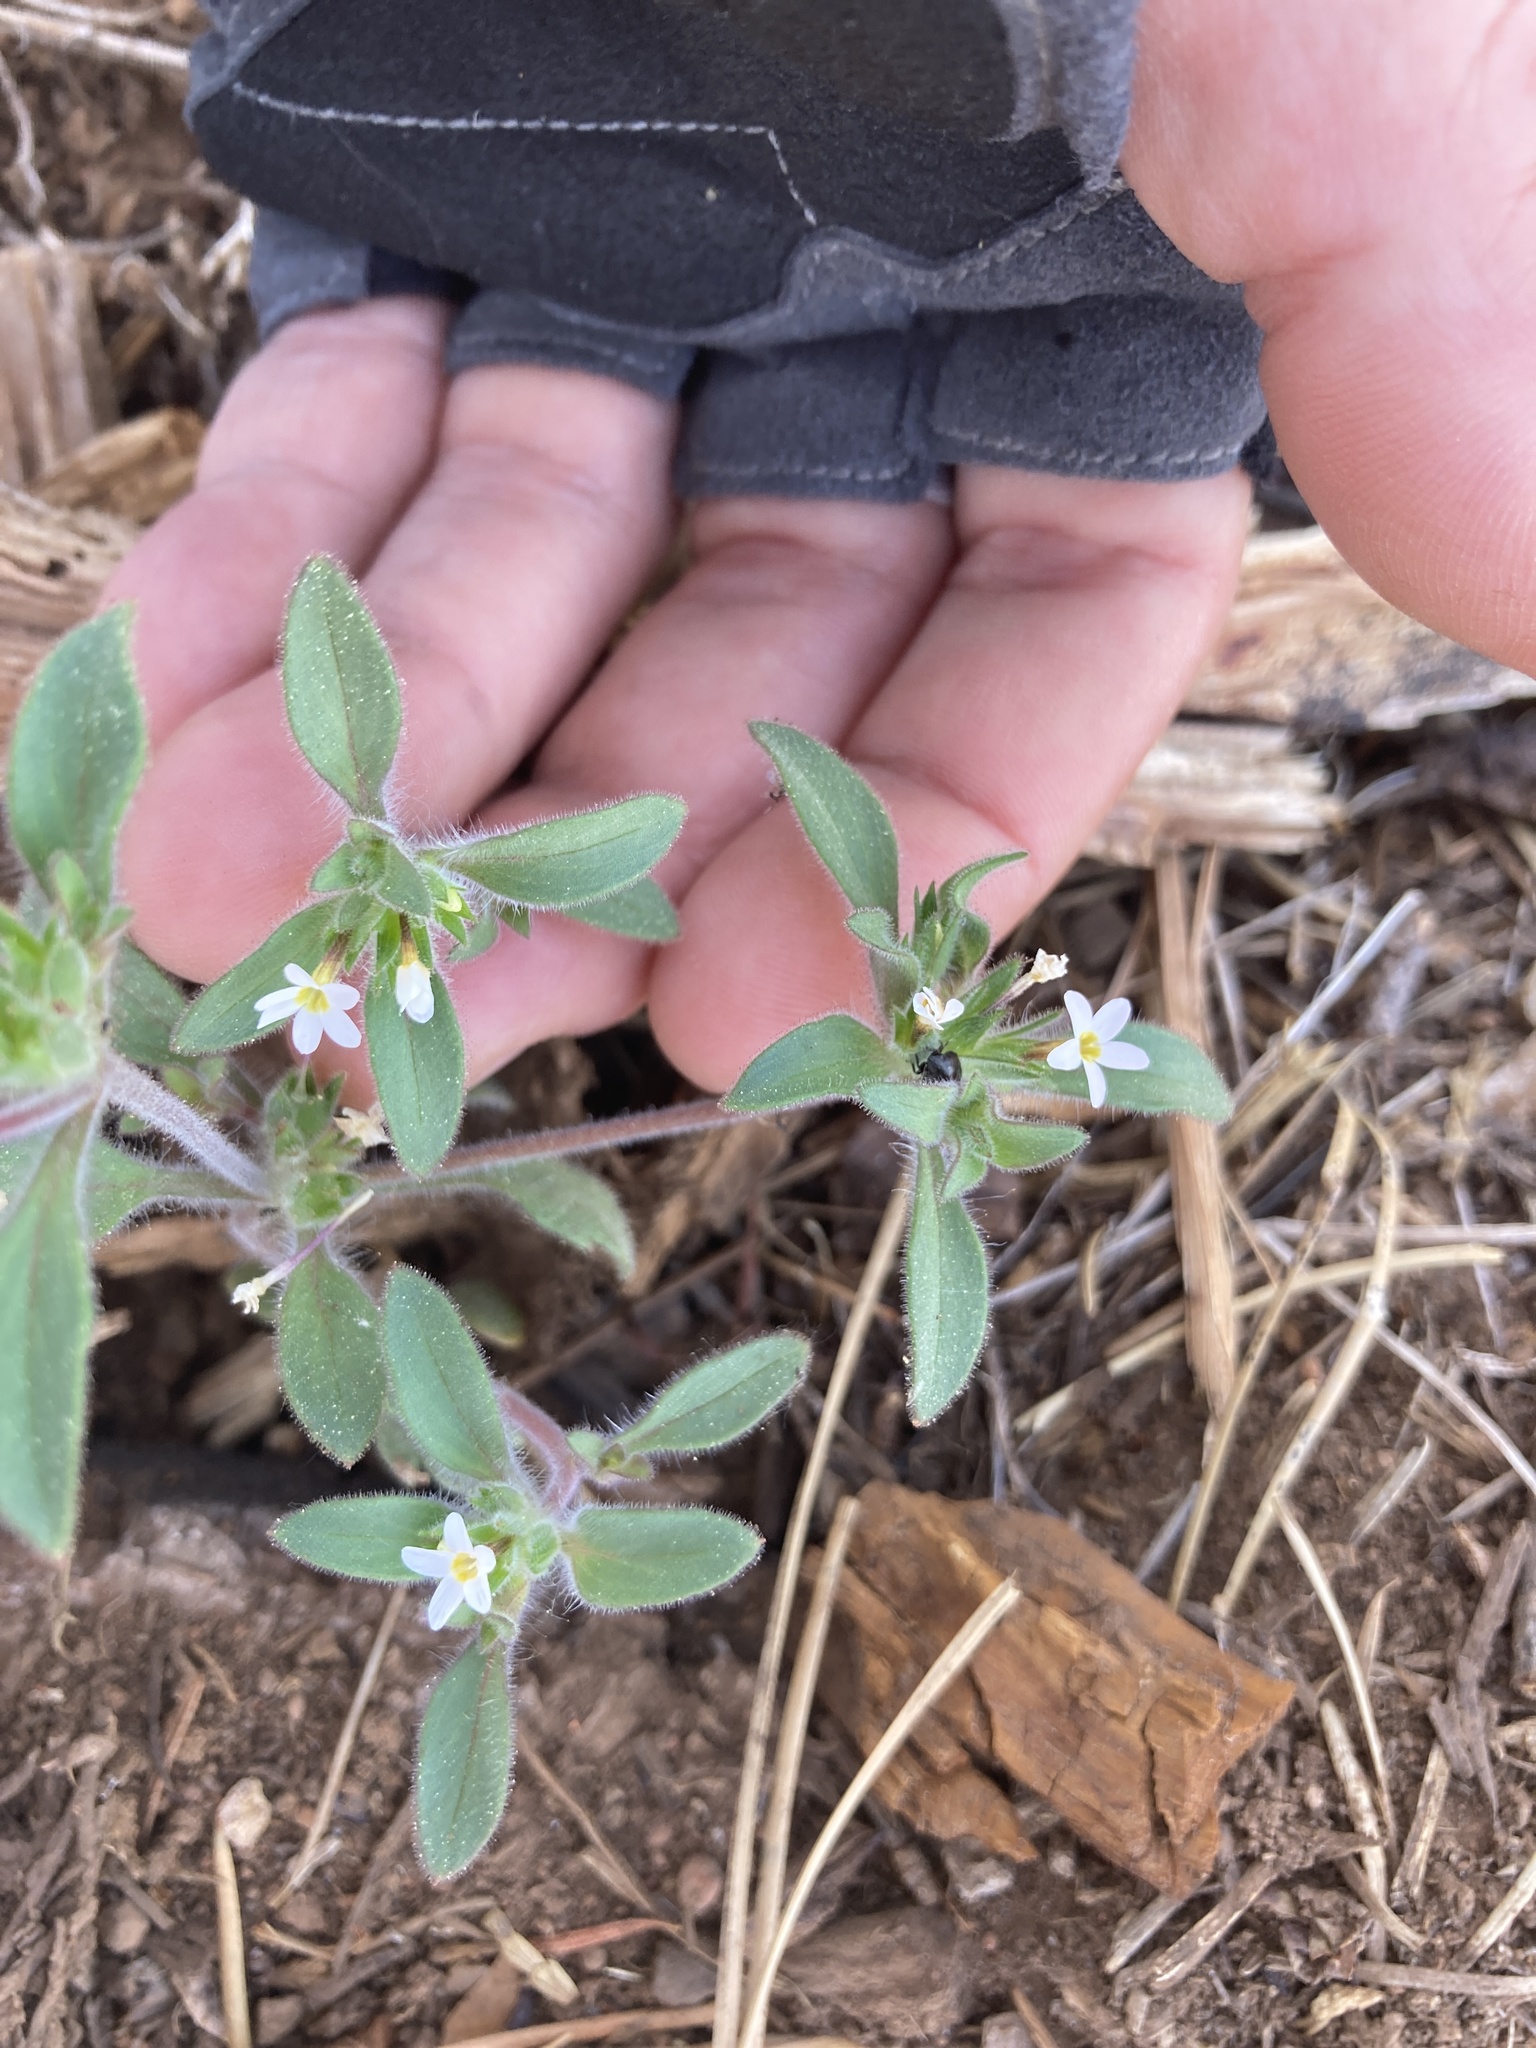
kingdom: Plantae
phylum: Tracheophyta
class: Magnoliopsida
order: Ericales
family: Polemoniaceae
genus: Collomia
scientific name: Collomia heterophylla
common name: Variable-leaved collomia
